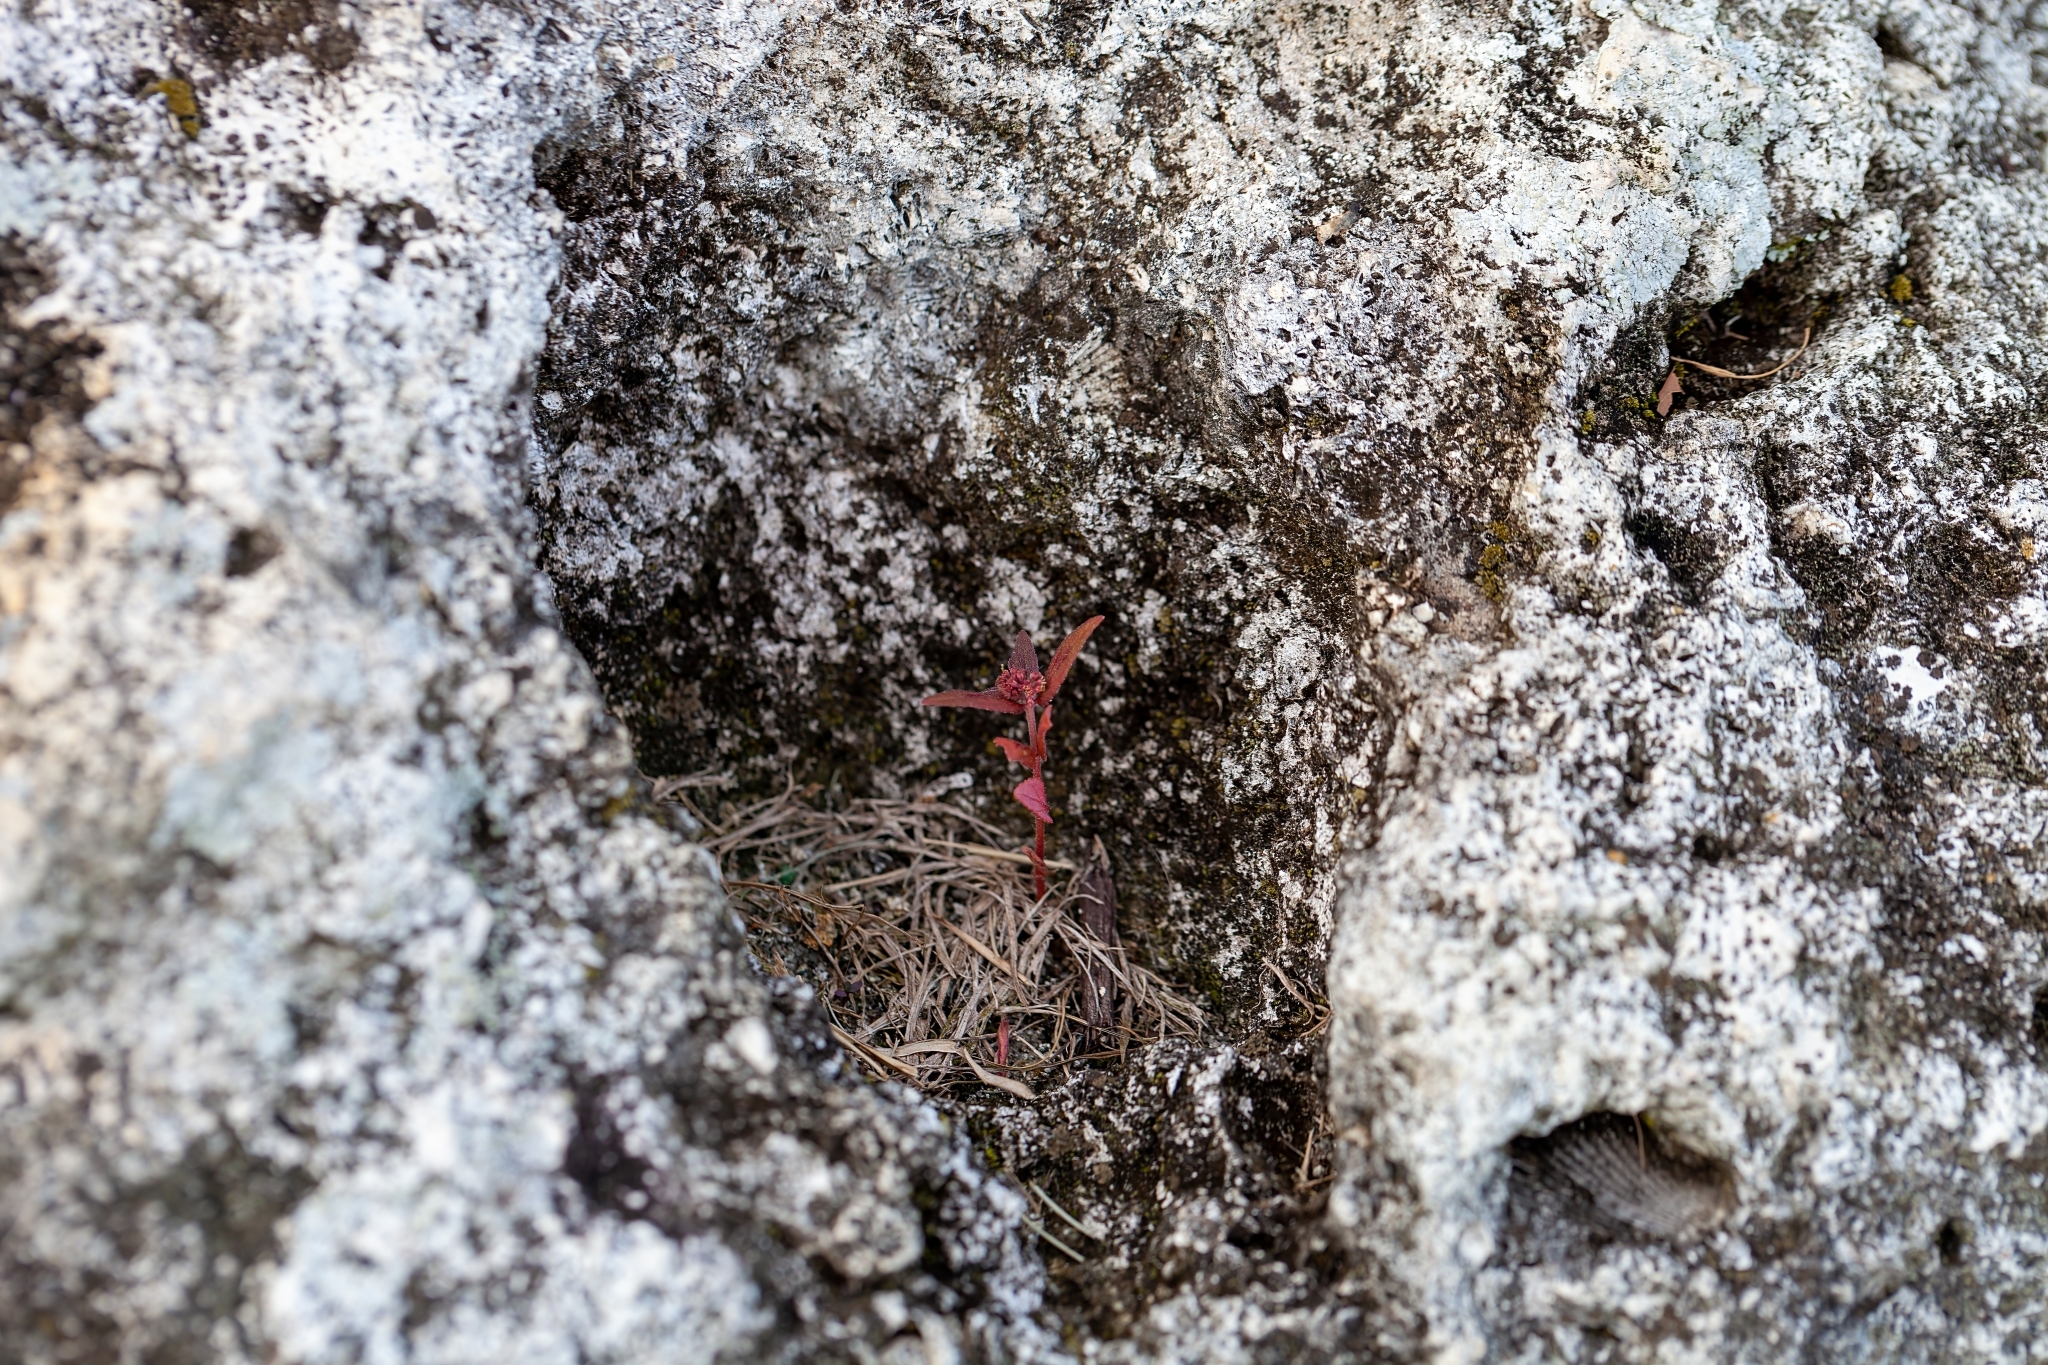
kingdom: Plantae
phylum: Tracheophyta
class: Magnoliopsida
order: Malpighiales
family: Euphorbiaceae
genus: Euphorbia
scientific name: Euphorbia hirta
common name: Pillpod sandmat
